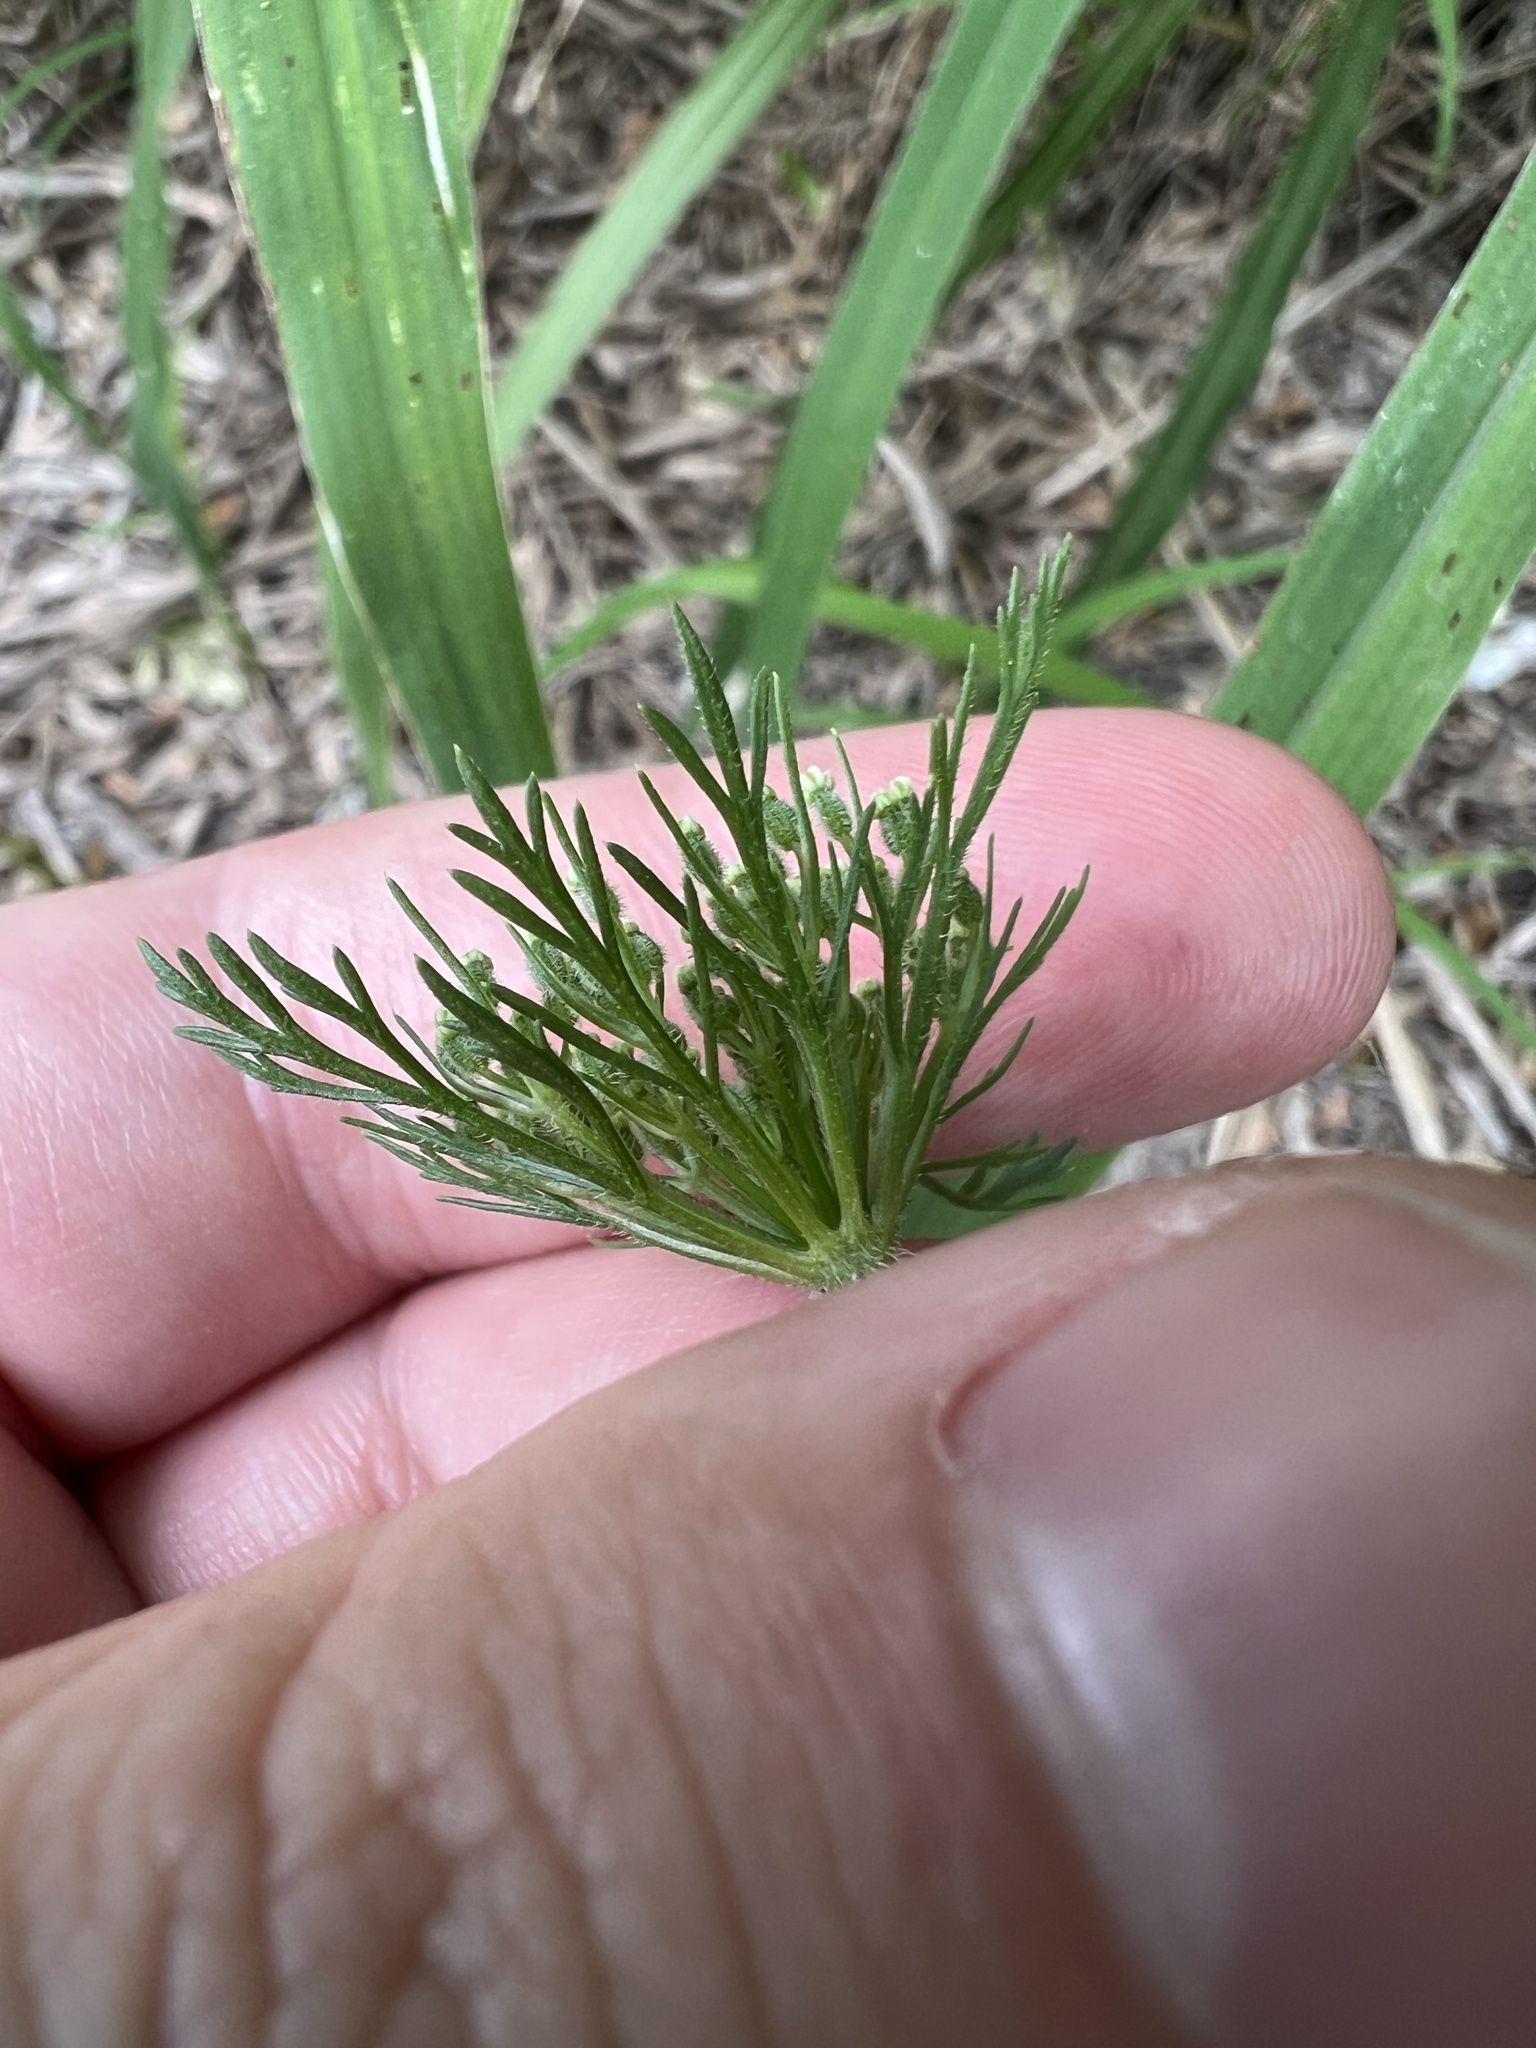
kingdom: Plantae
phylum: Tracheophyta
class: Magnoliopsida
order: Apiales
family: Apiaceae
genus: Daucus
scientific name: Daucus pusillus
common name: Southwest wild carrot
